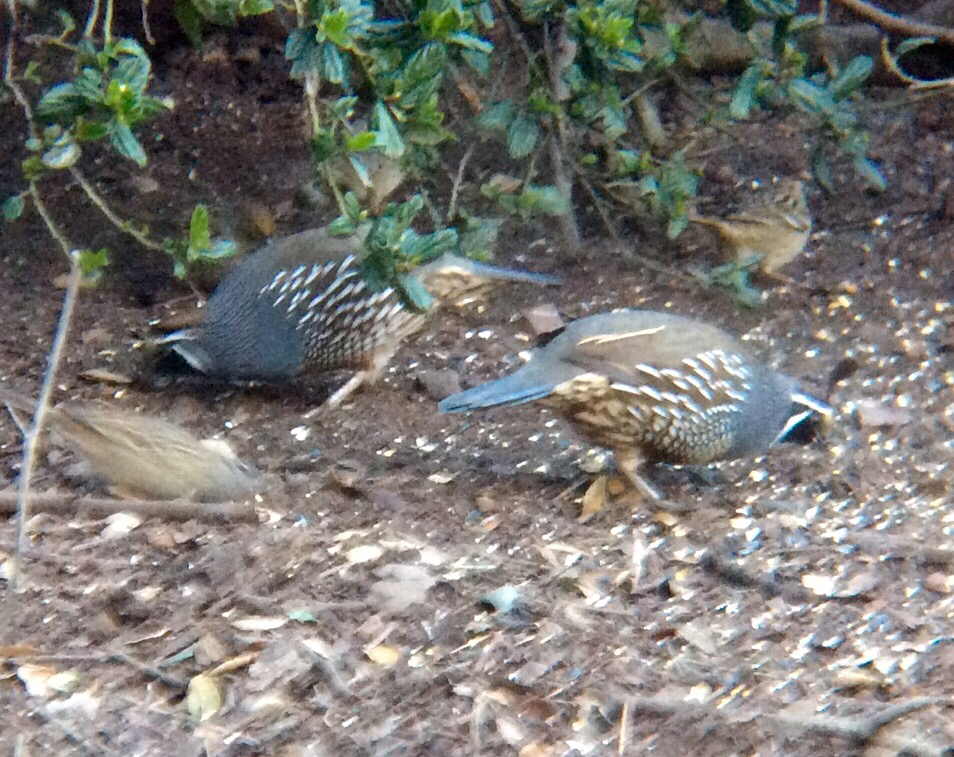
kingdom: Animalia
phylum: Chordata
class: Aves
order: Galliformes
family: Odontophoridae
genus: Callipepla
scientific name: Callipepla californica
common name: California quail
